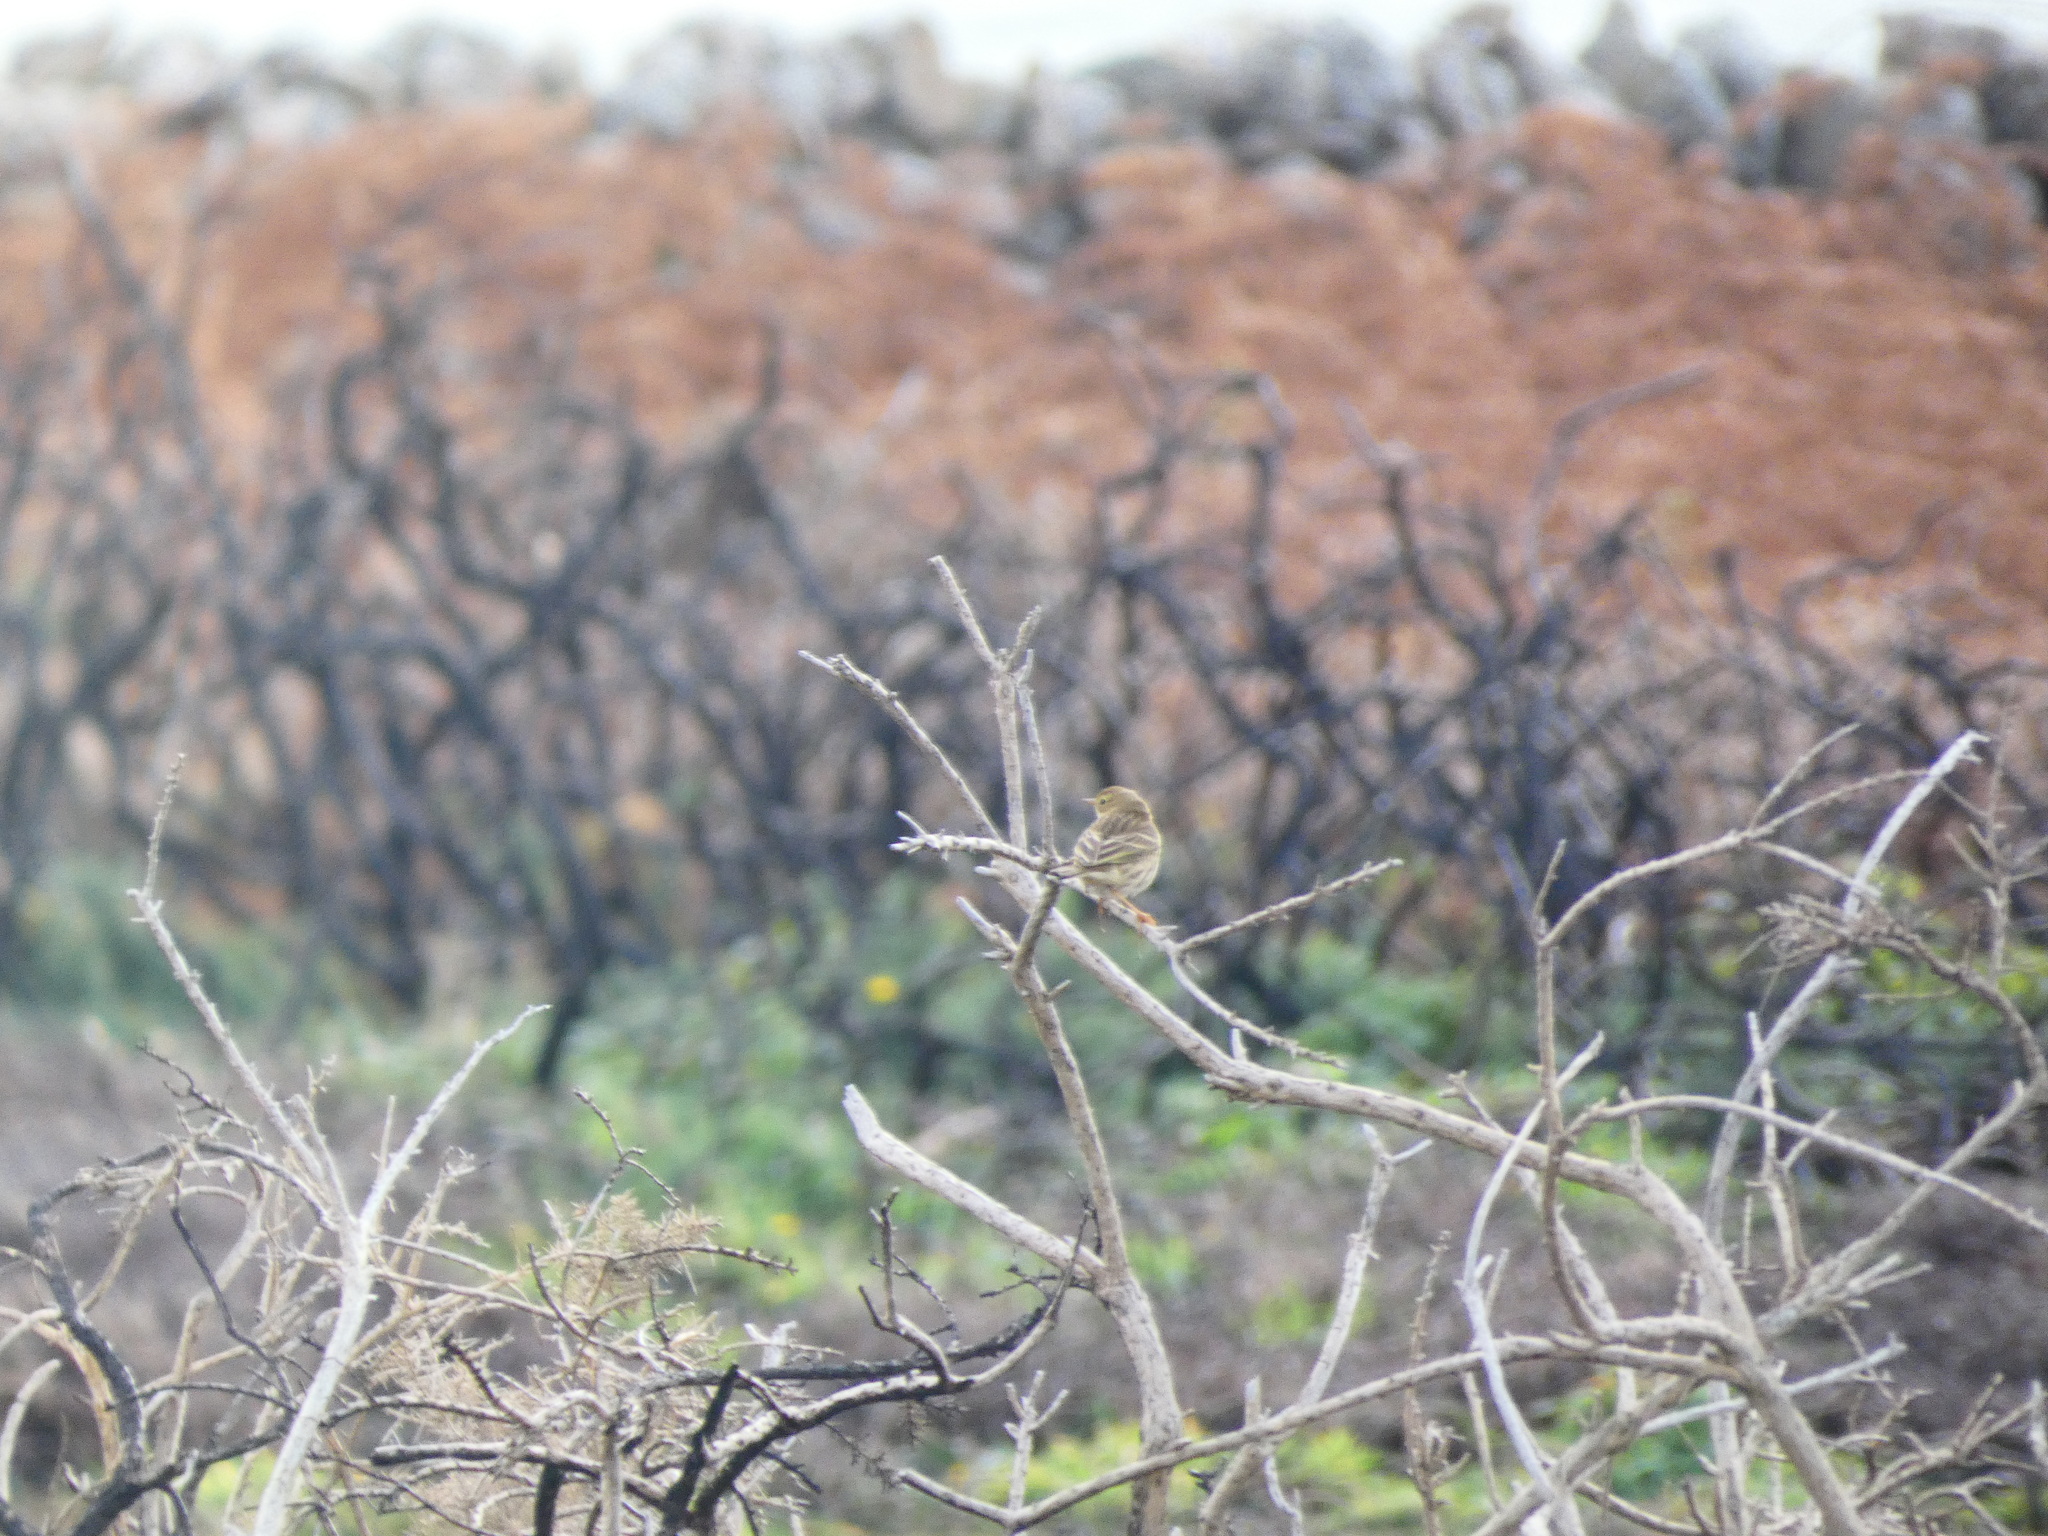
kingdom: Animalia
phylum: Chordata
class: Aves
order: Passeriformes
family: Motacillidae
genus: Anthus
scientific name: Anthus pratensis
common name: Meadow pipit
